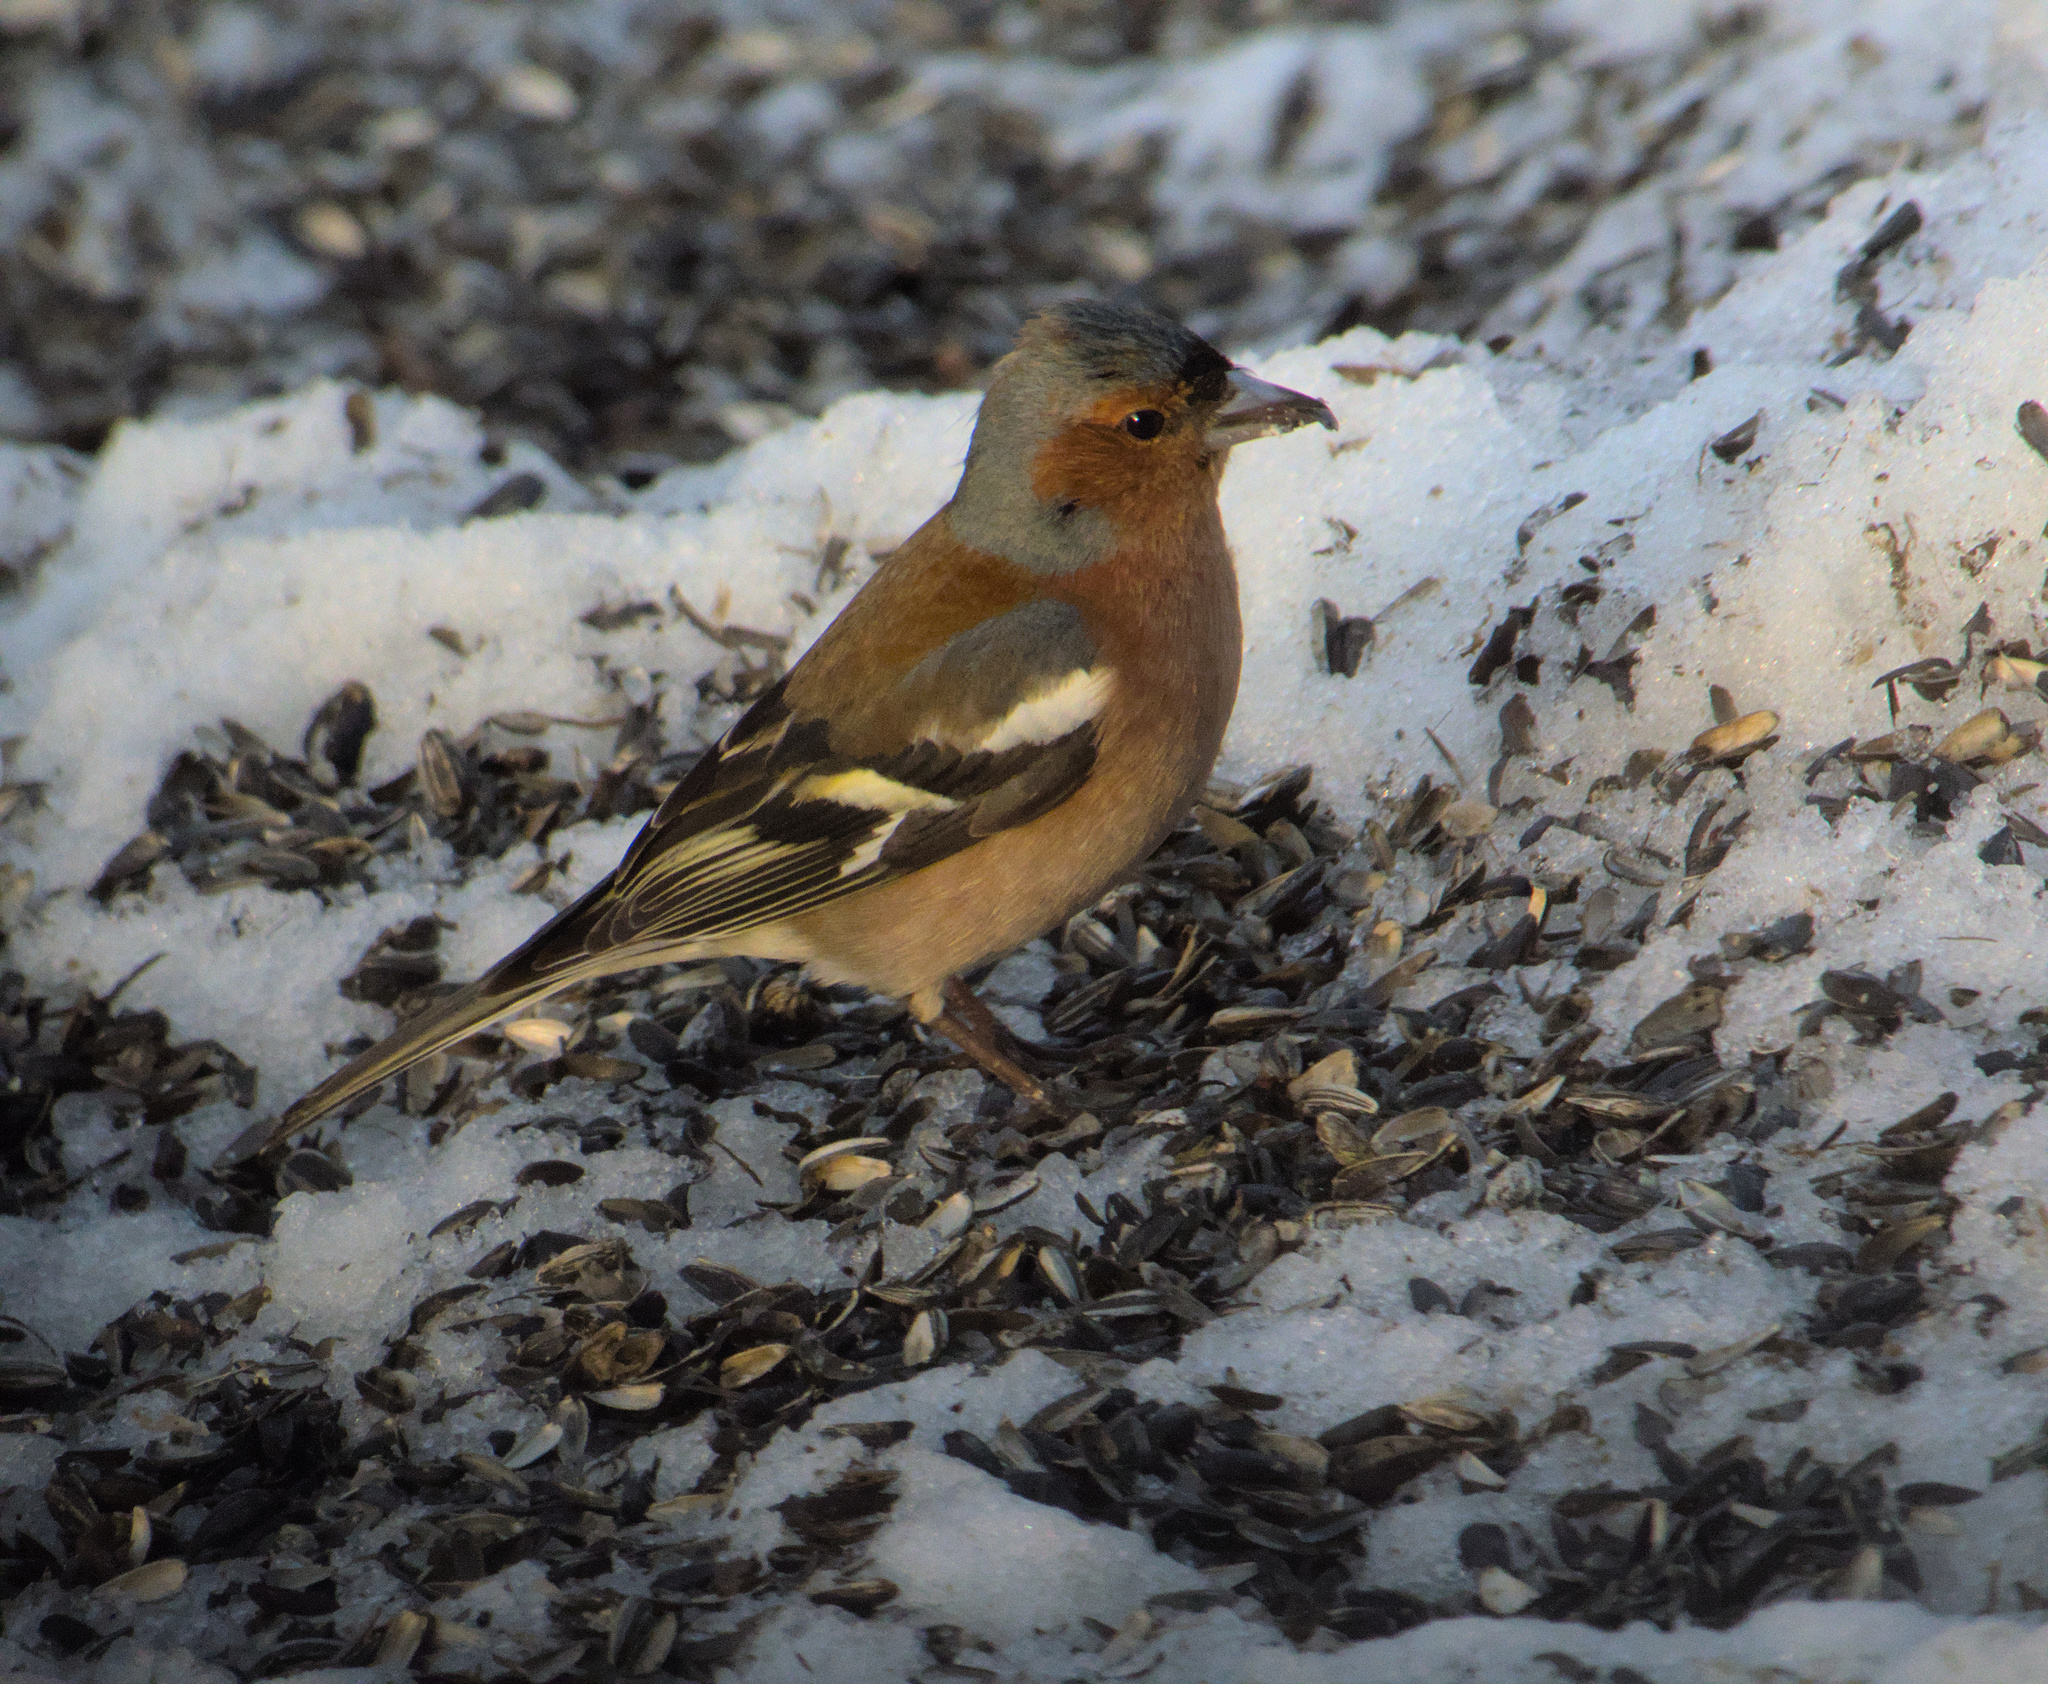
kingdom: Animalia
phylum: Chordata
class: Aves
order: Passeriformes
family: Fringillidae
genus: Fringilla
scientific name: Fringilla coelebs
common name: Common chaffinch
